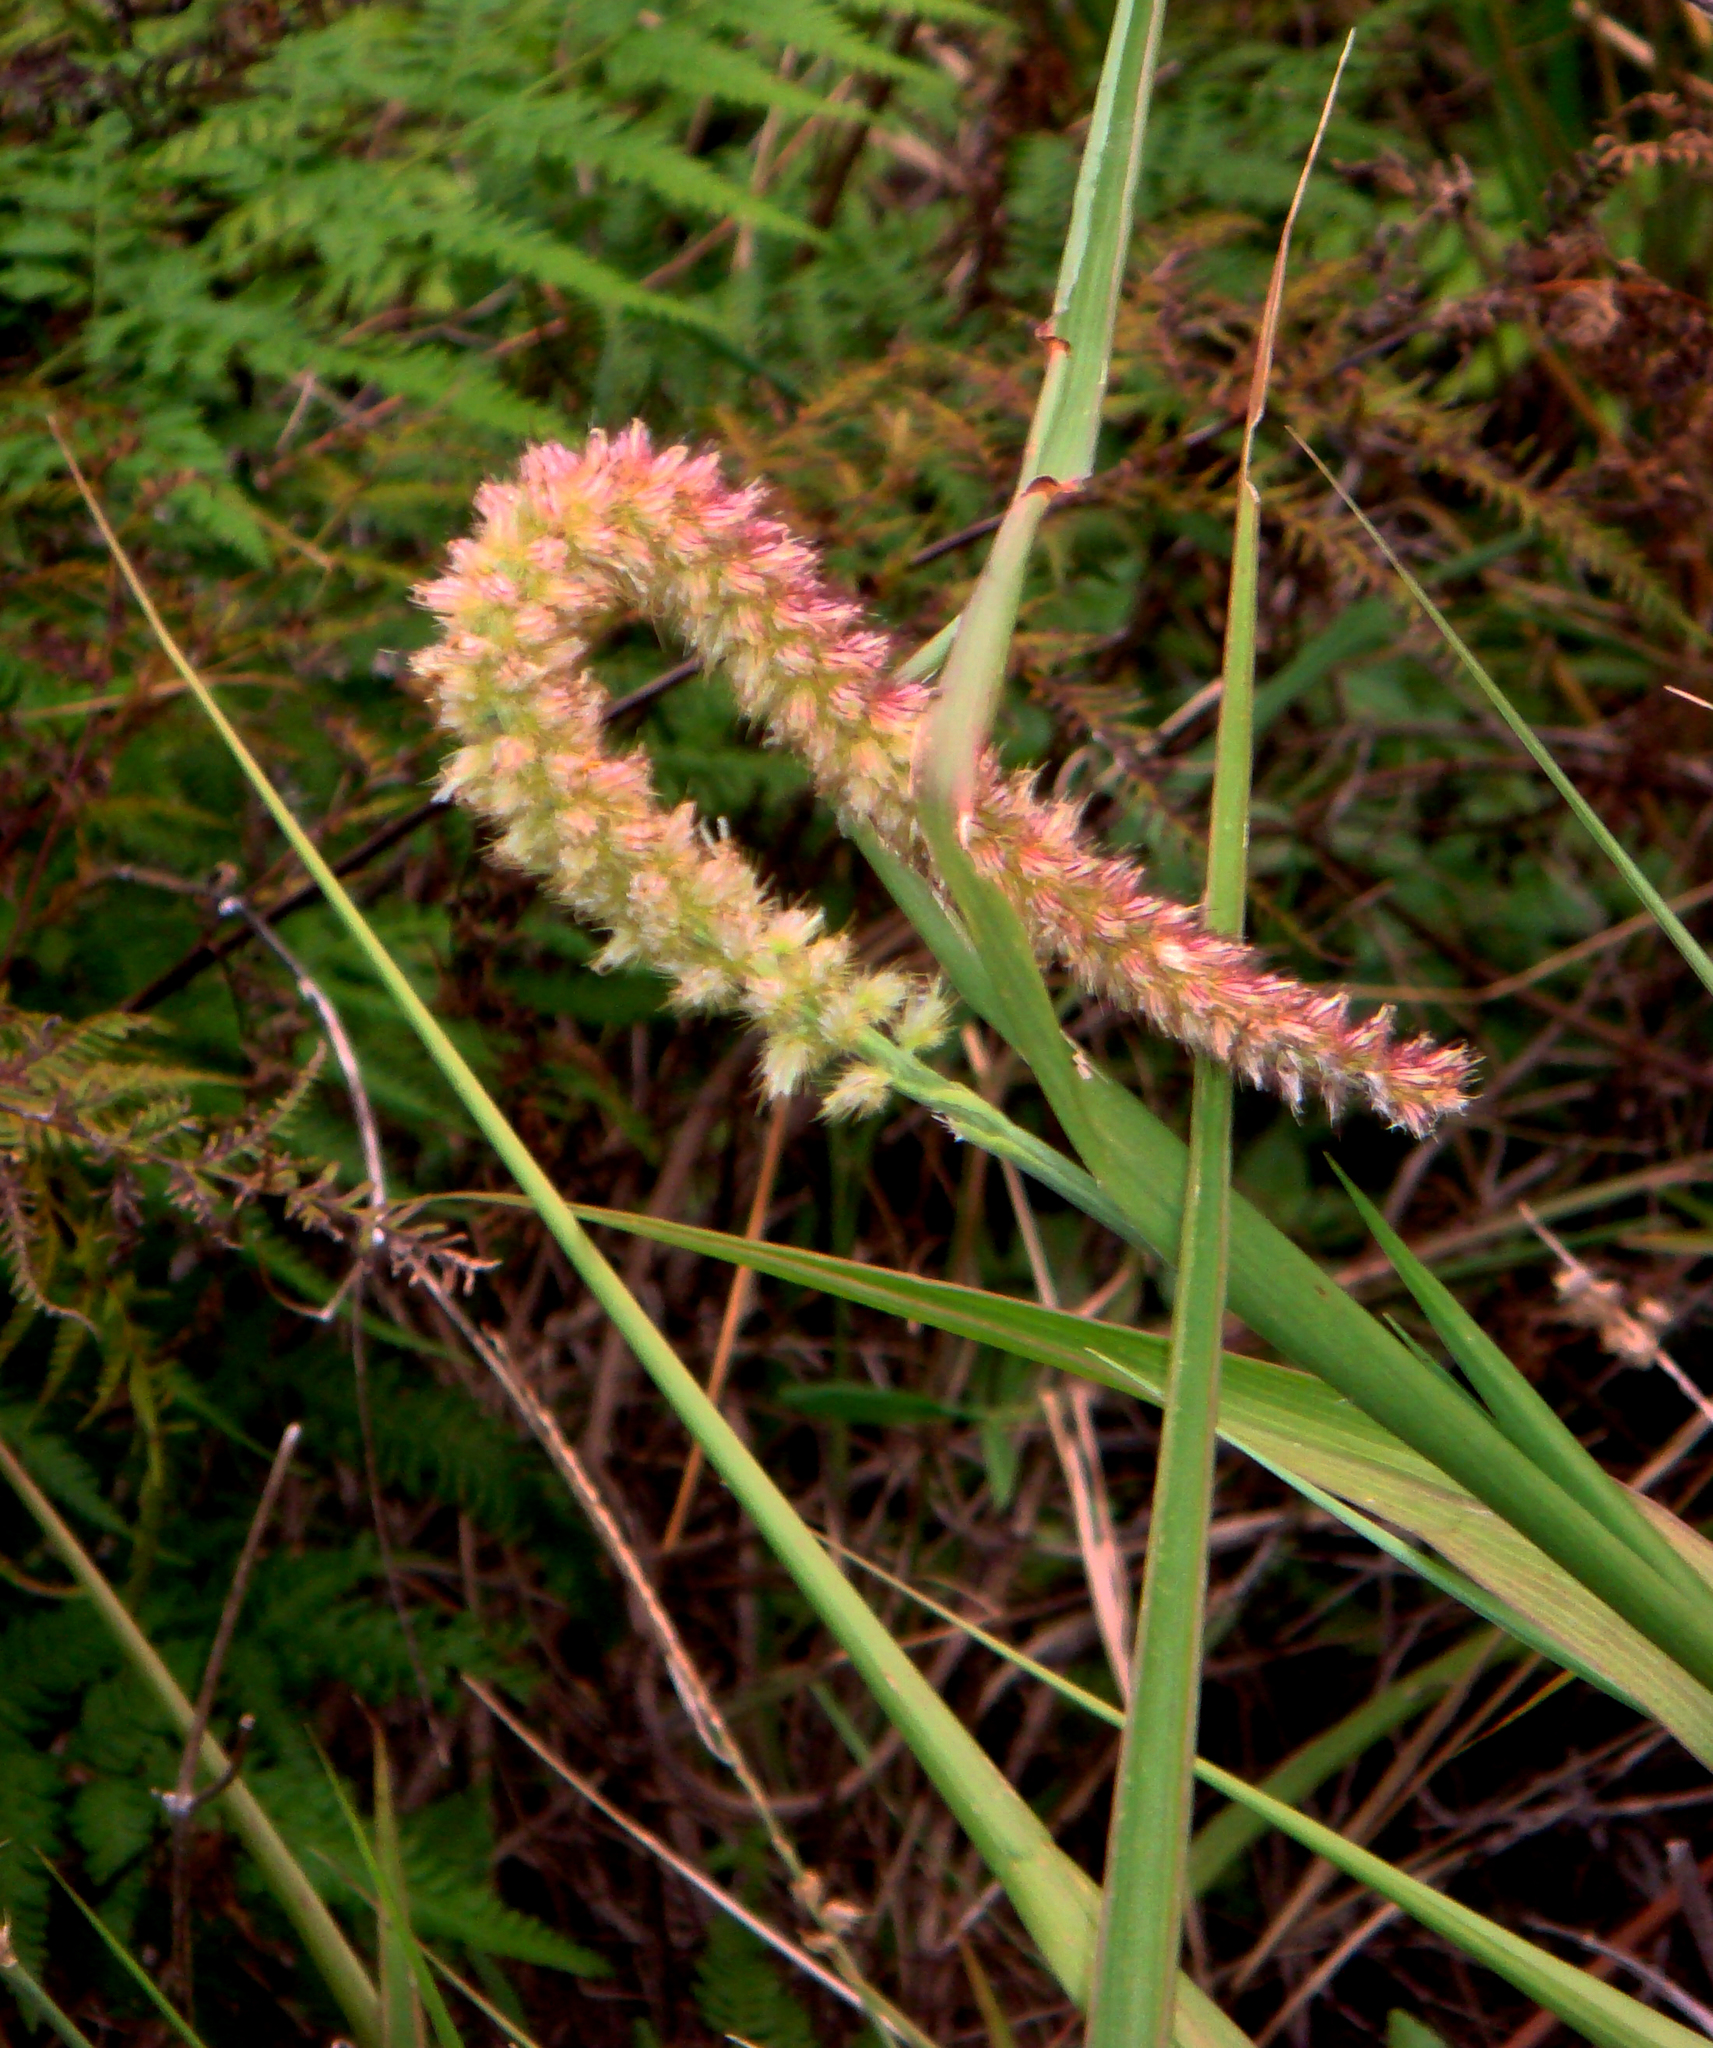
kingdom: Plantae
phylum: Tracheophyta
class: Liliopsida
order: Poales
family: Poaceae
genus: Cenchrus
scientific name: Cenchrus caliculatus
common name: Large bur grass
